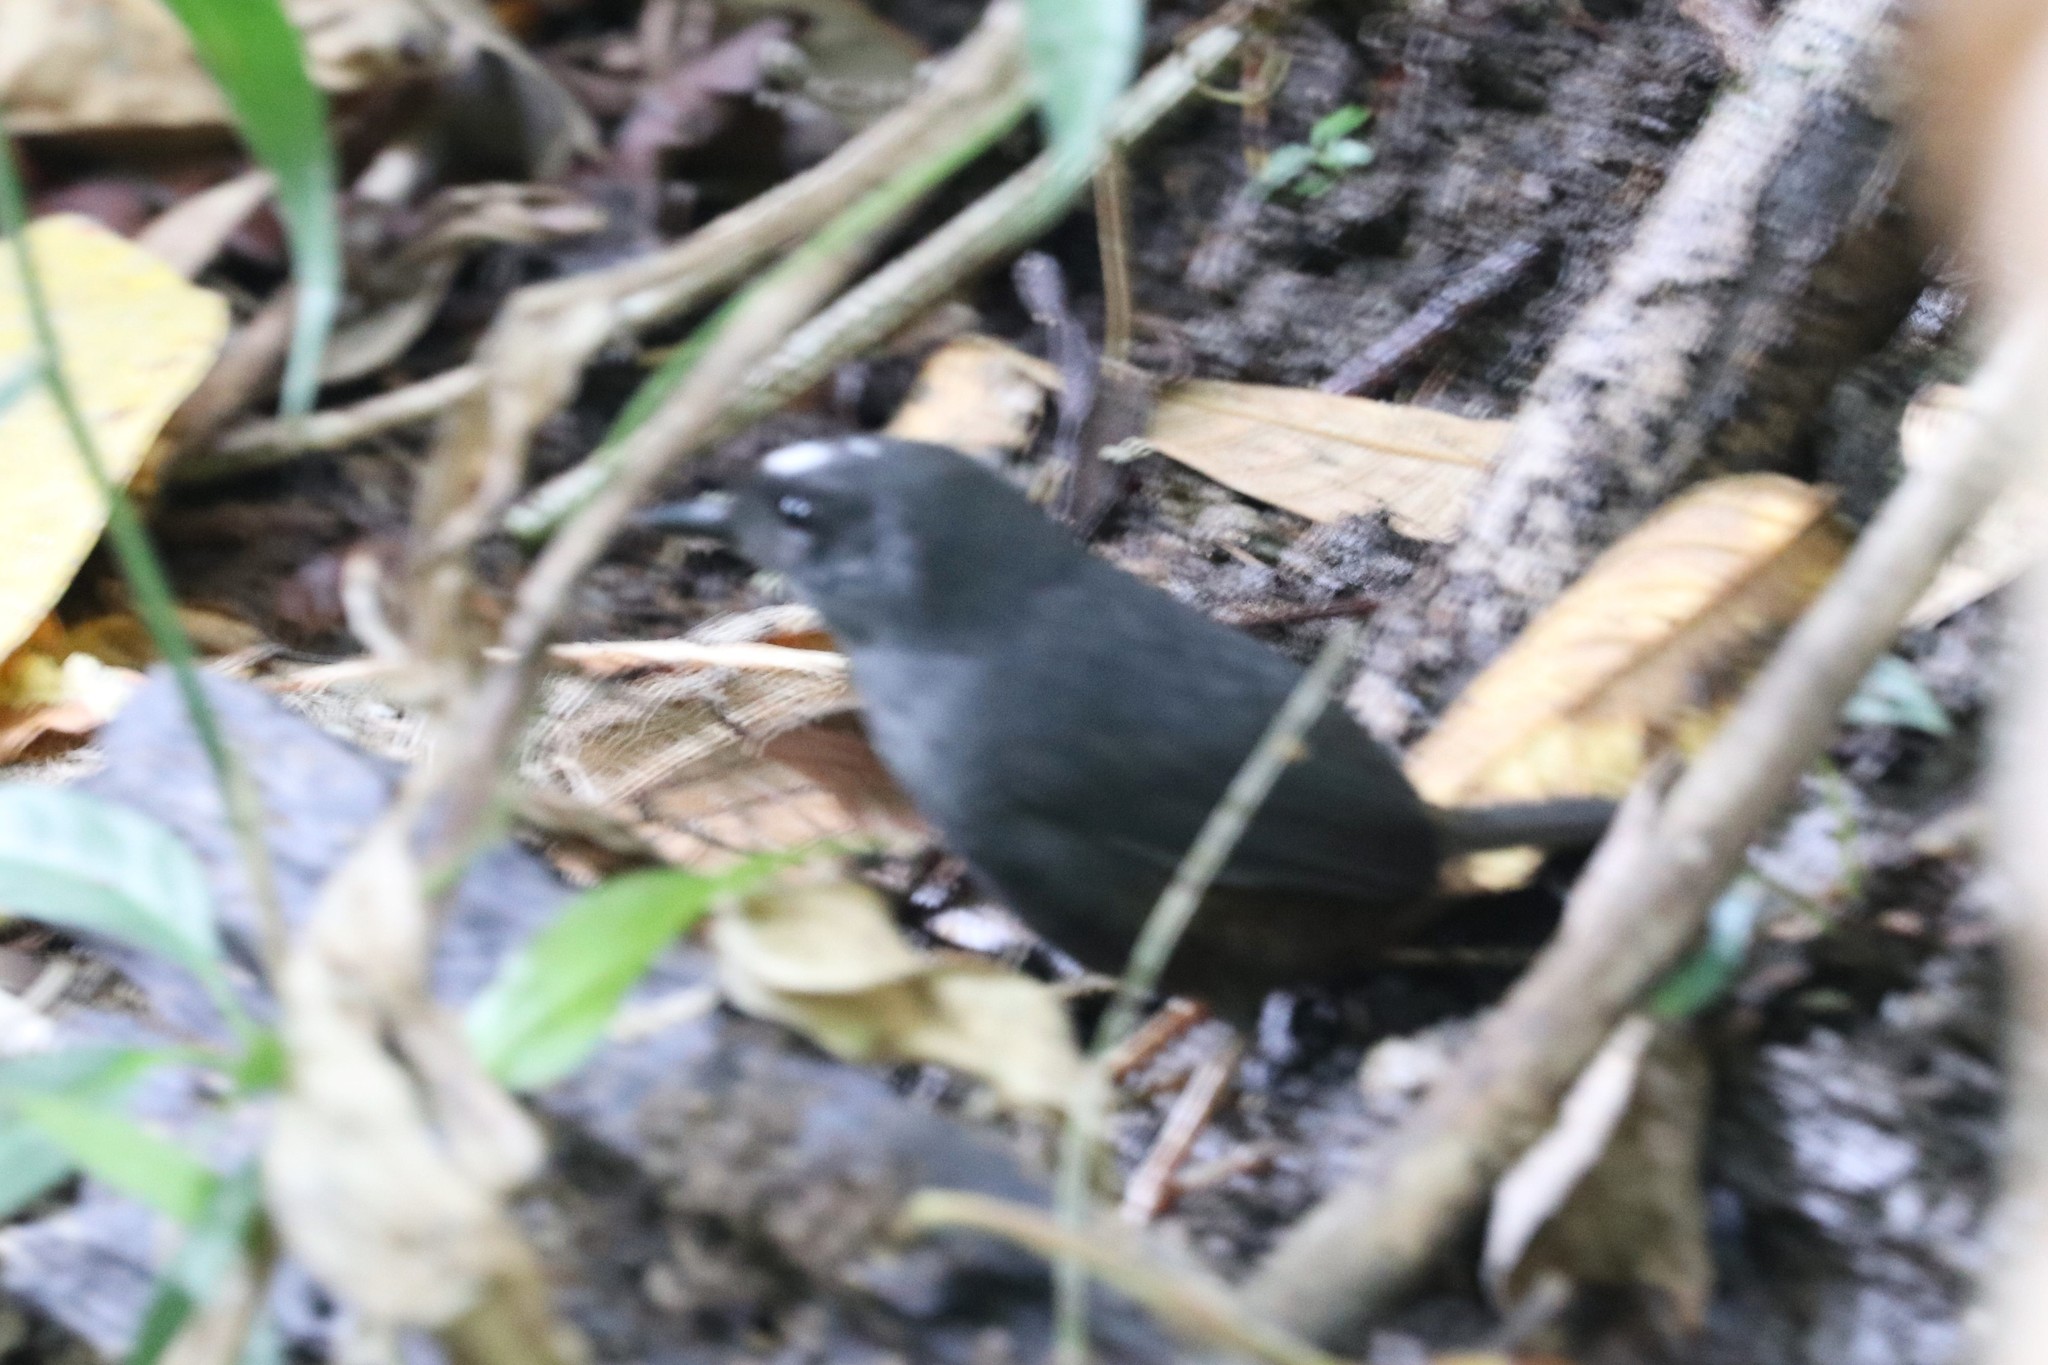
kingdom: Animalia
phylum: Chordata
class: Aves
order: Passeriformes
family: Rhinocryptidae
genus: Scytalopus
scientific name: Scytalopus sanctaemartae
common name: Santa marta tapaculo
